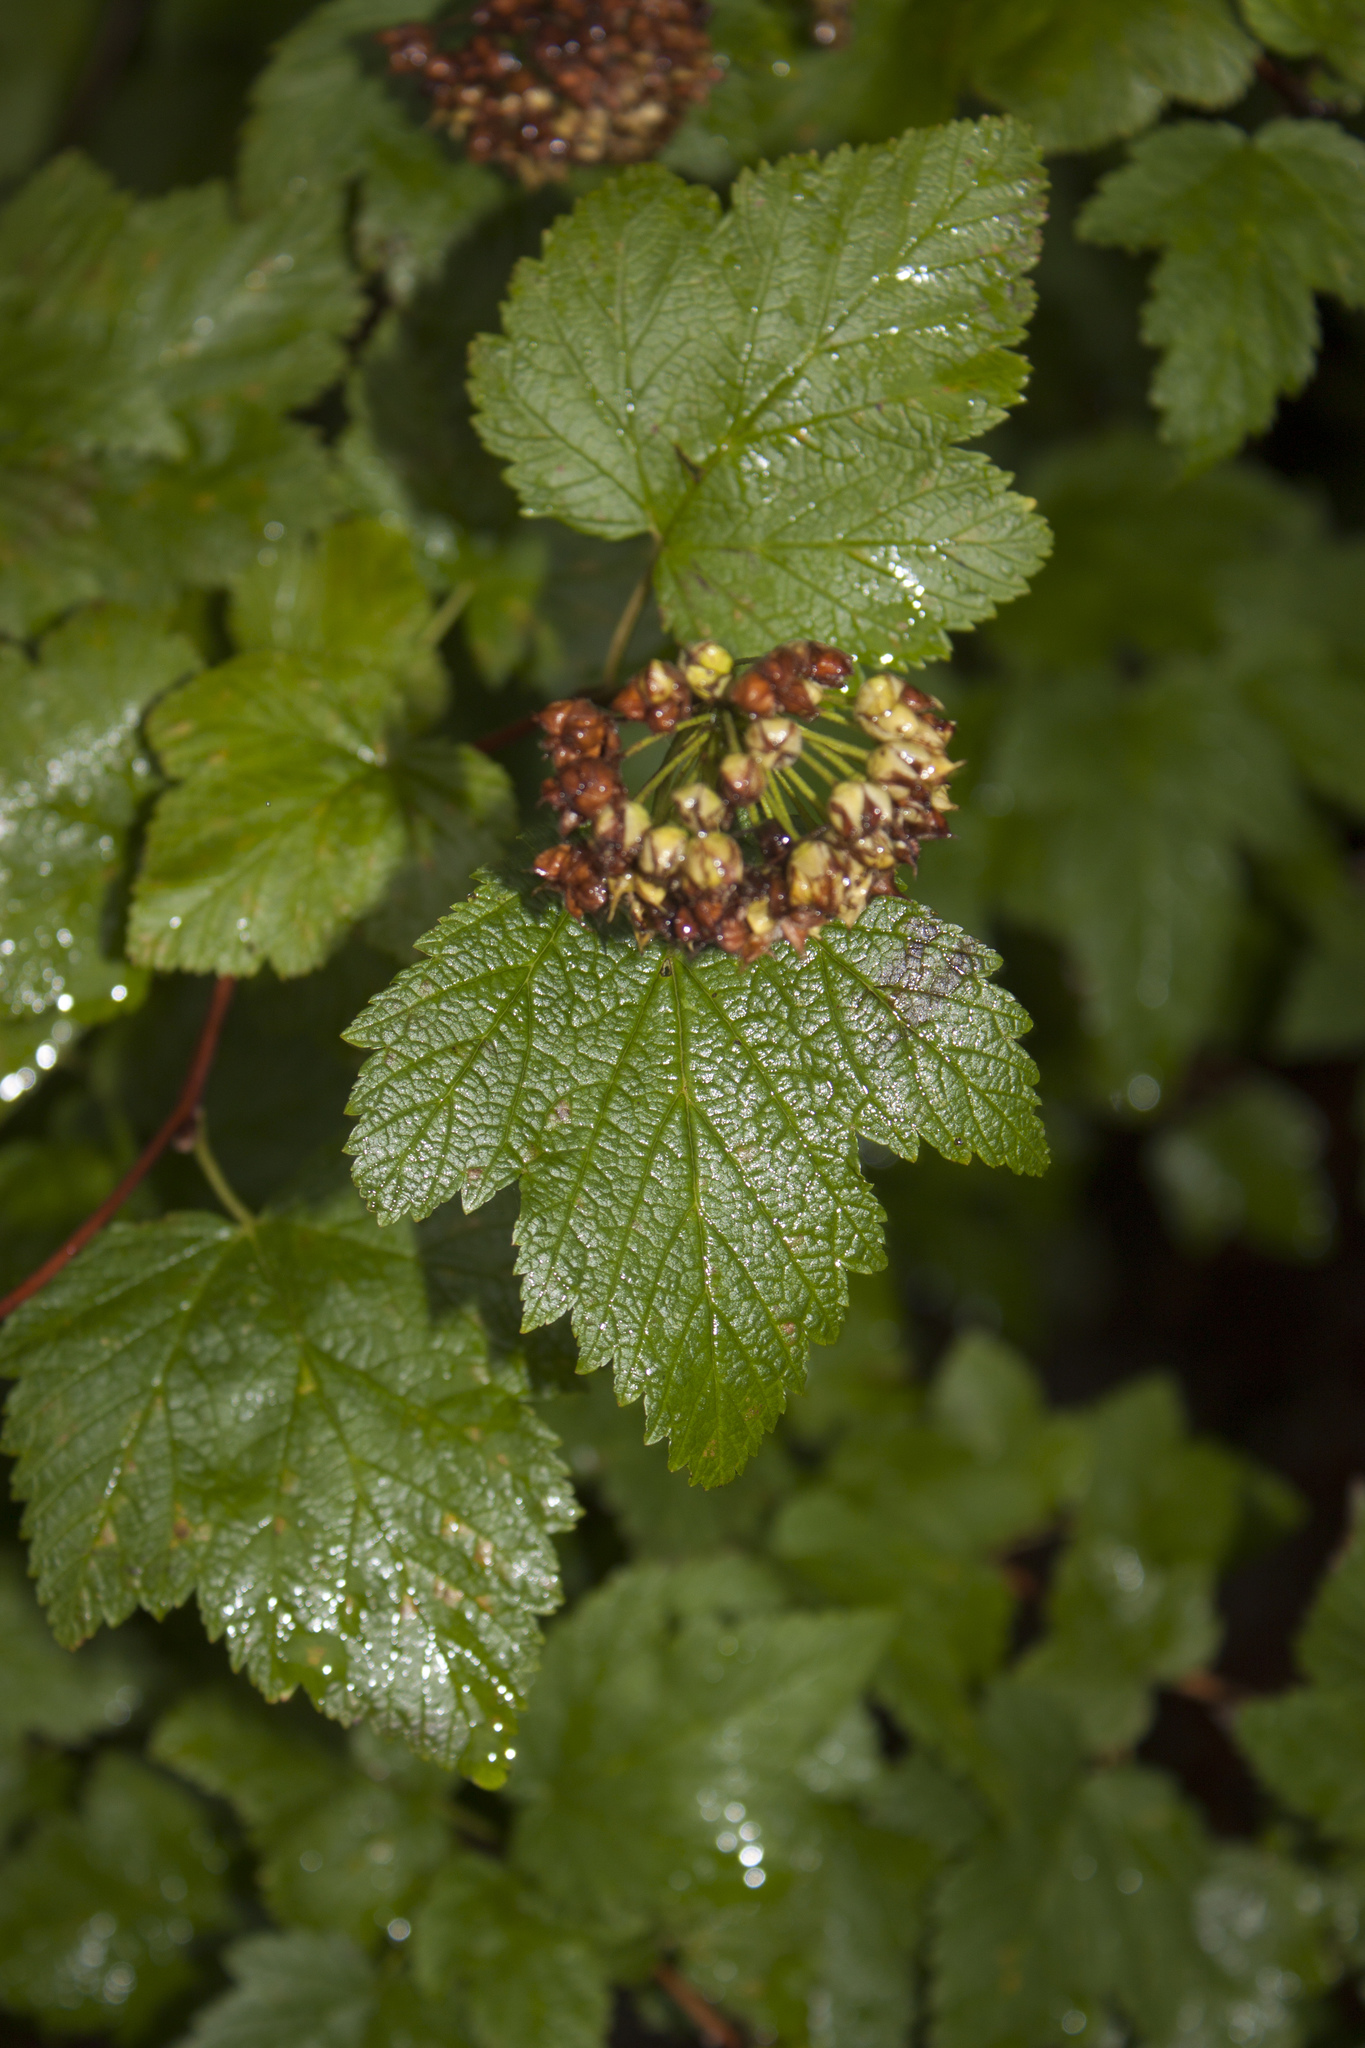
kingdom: Plantae
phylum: Tracheophyta
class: Magnoliopsida
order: Rosales
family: Rosaceae
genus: Physocarpus
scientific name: Physocarpus capitatus
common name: Pacific ninebark
